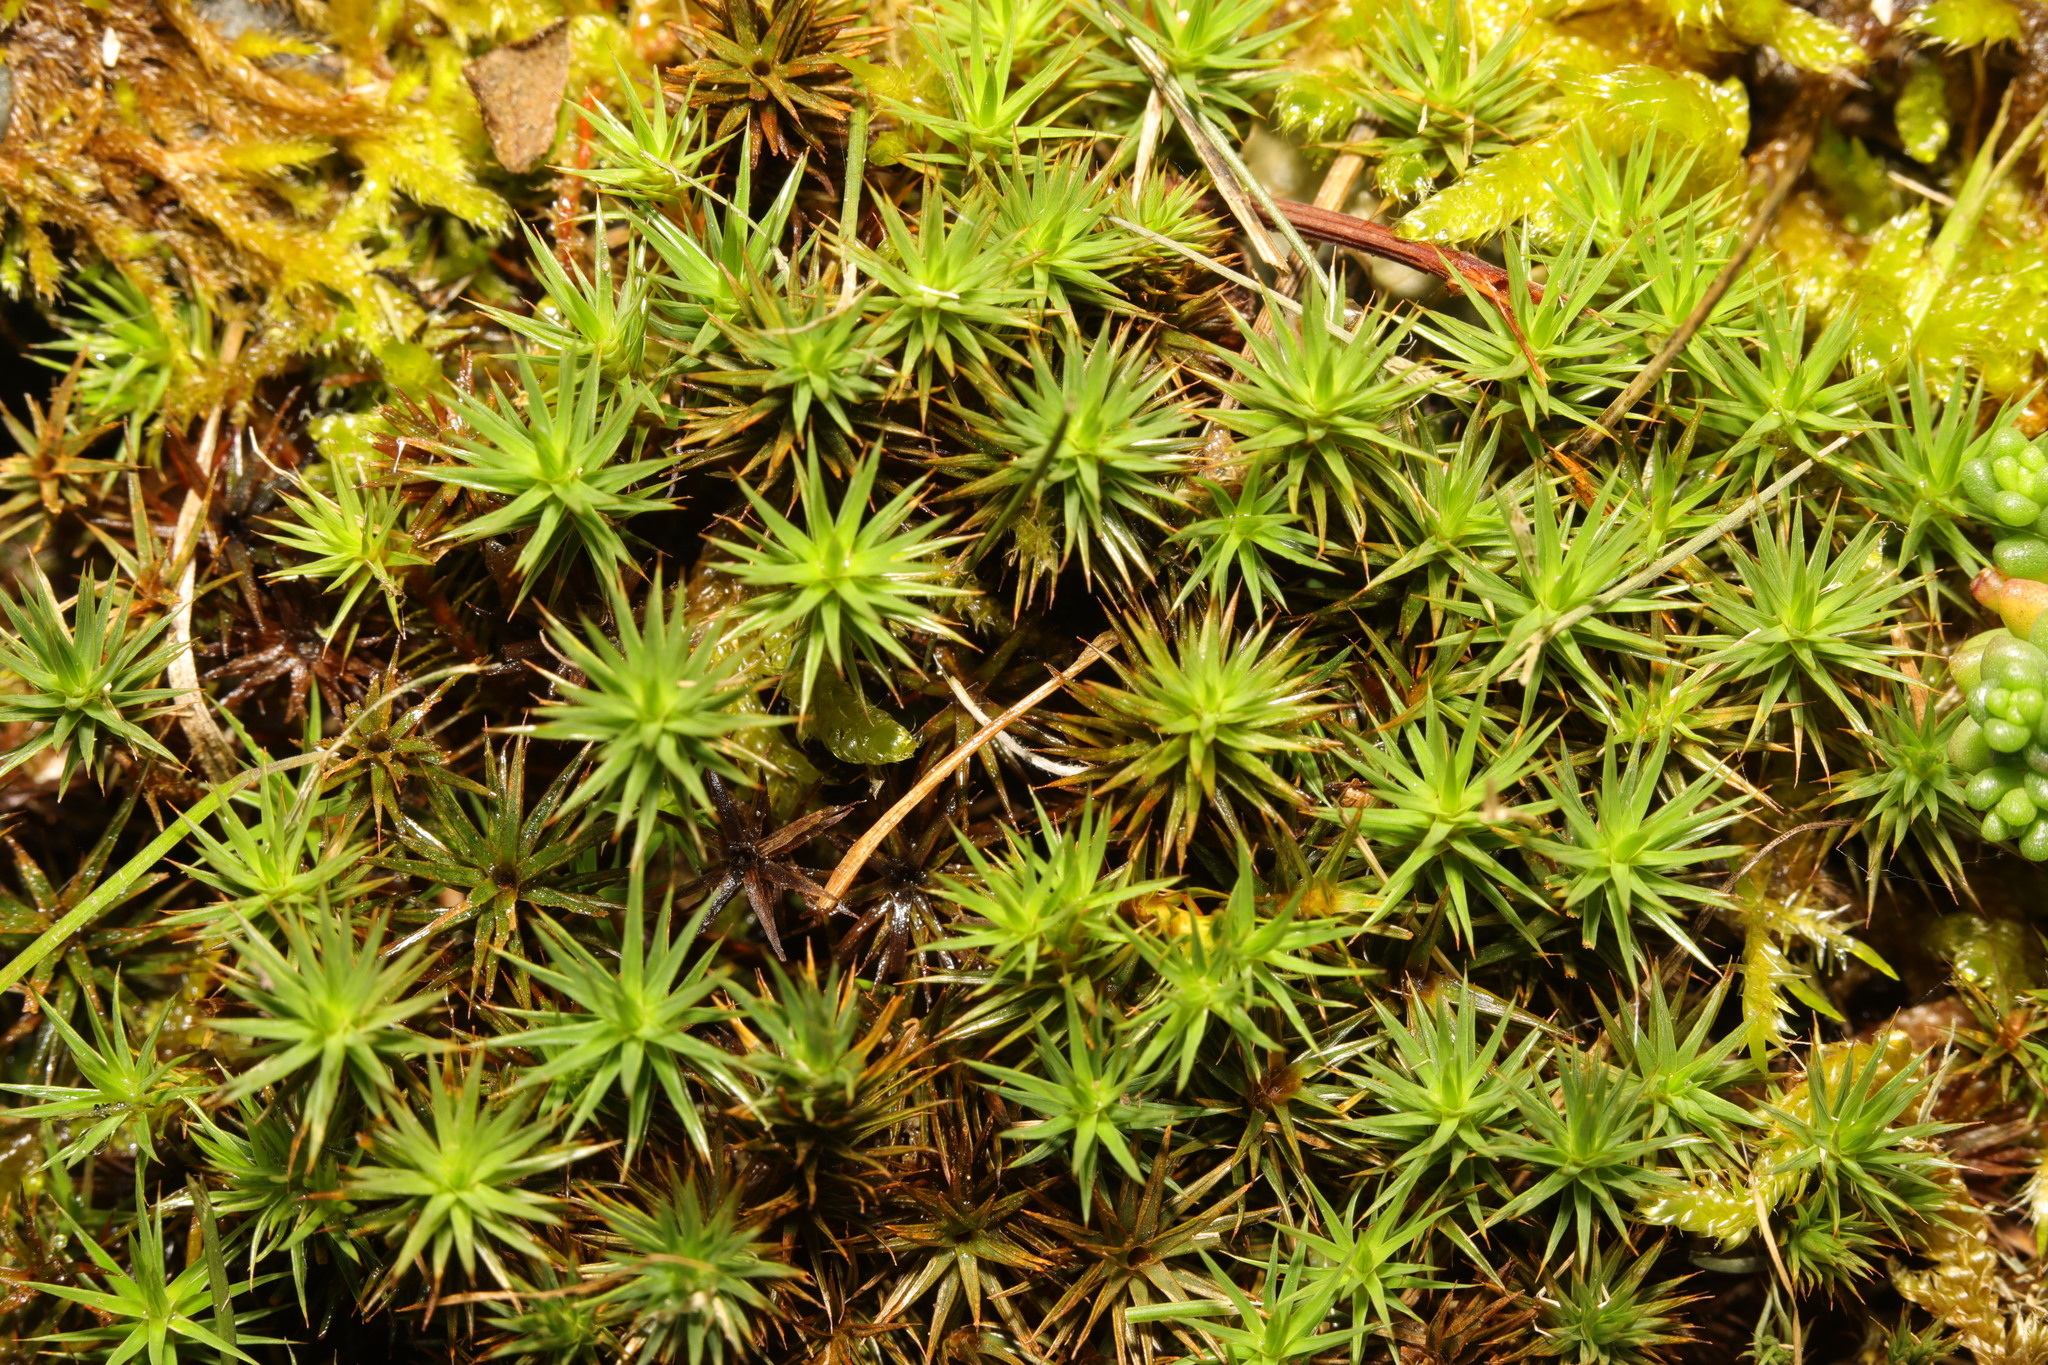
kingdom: Plantae
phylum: Bryophyta
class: Polytrichopsida
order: Polytrichales
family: Polytrichaceae
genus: Polytrichum
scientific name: Polytrichum juniperinum
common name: Juniper haircap moss
